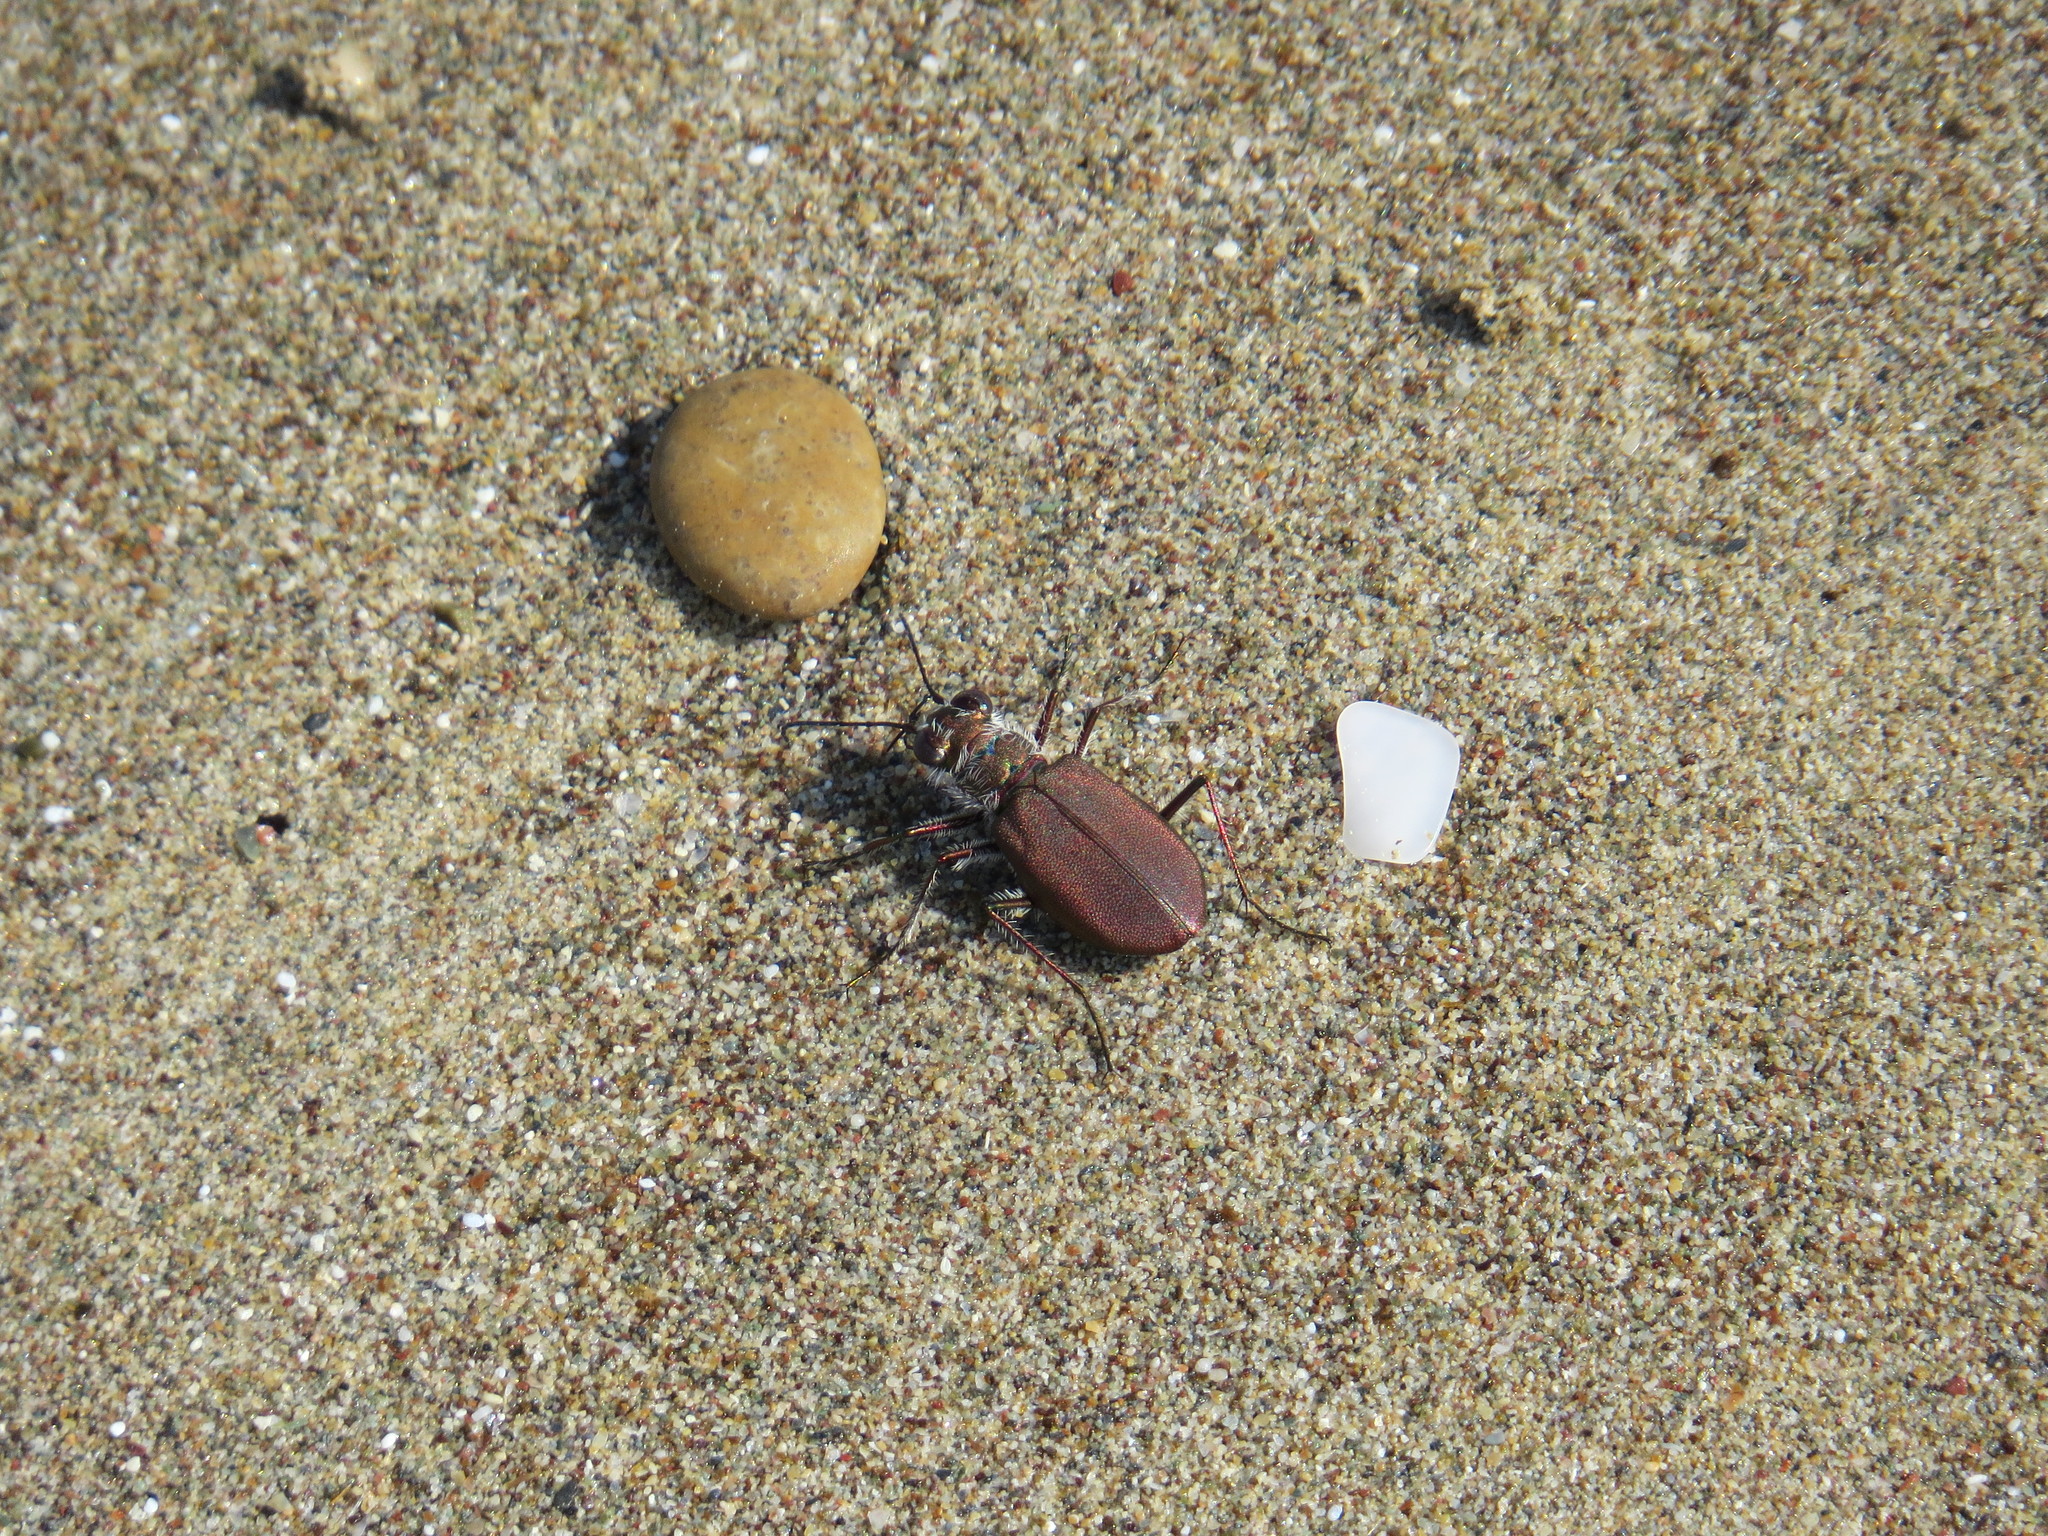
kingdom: Animalia
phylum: Arthropoda
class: Insecta
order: Coleoptera
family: Carabidae
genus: Cicindela
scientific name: Cicindela concolor
